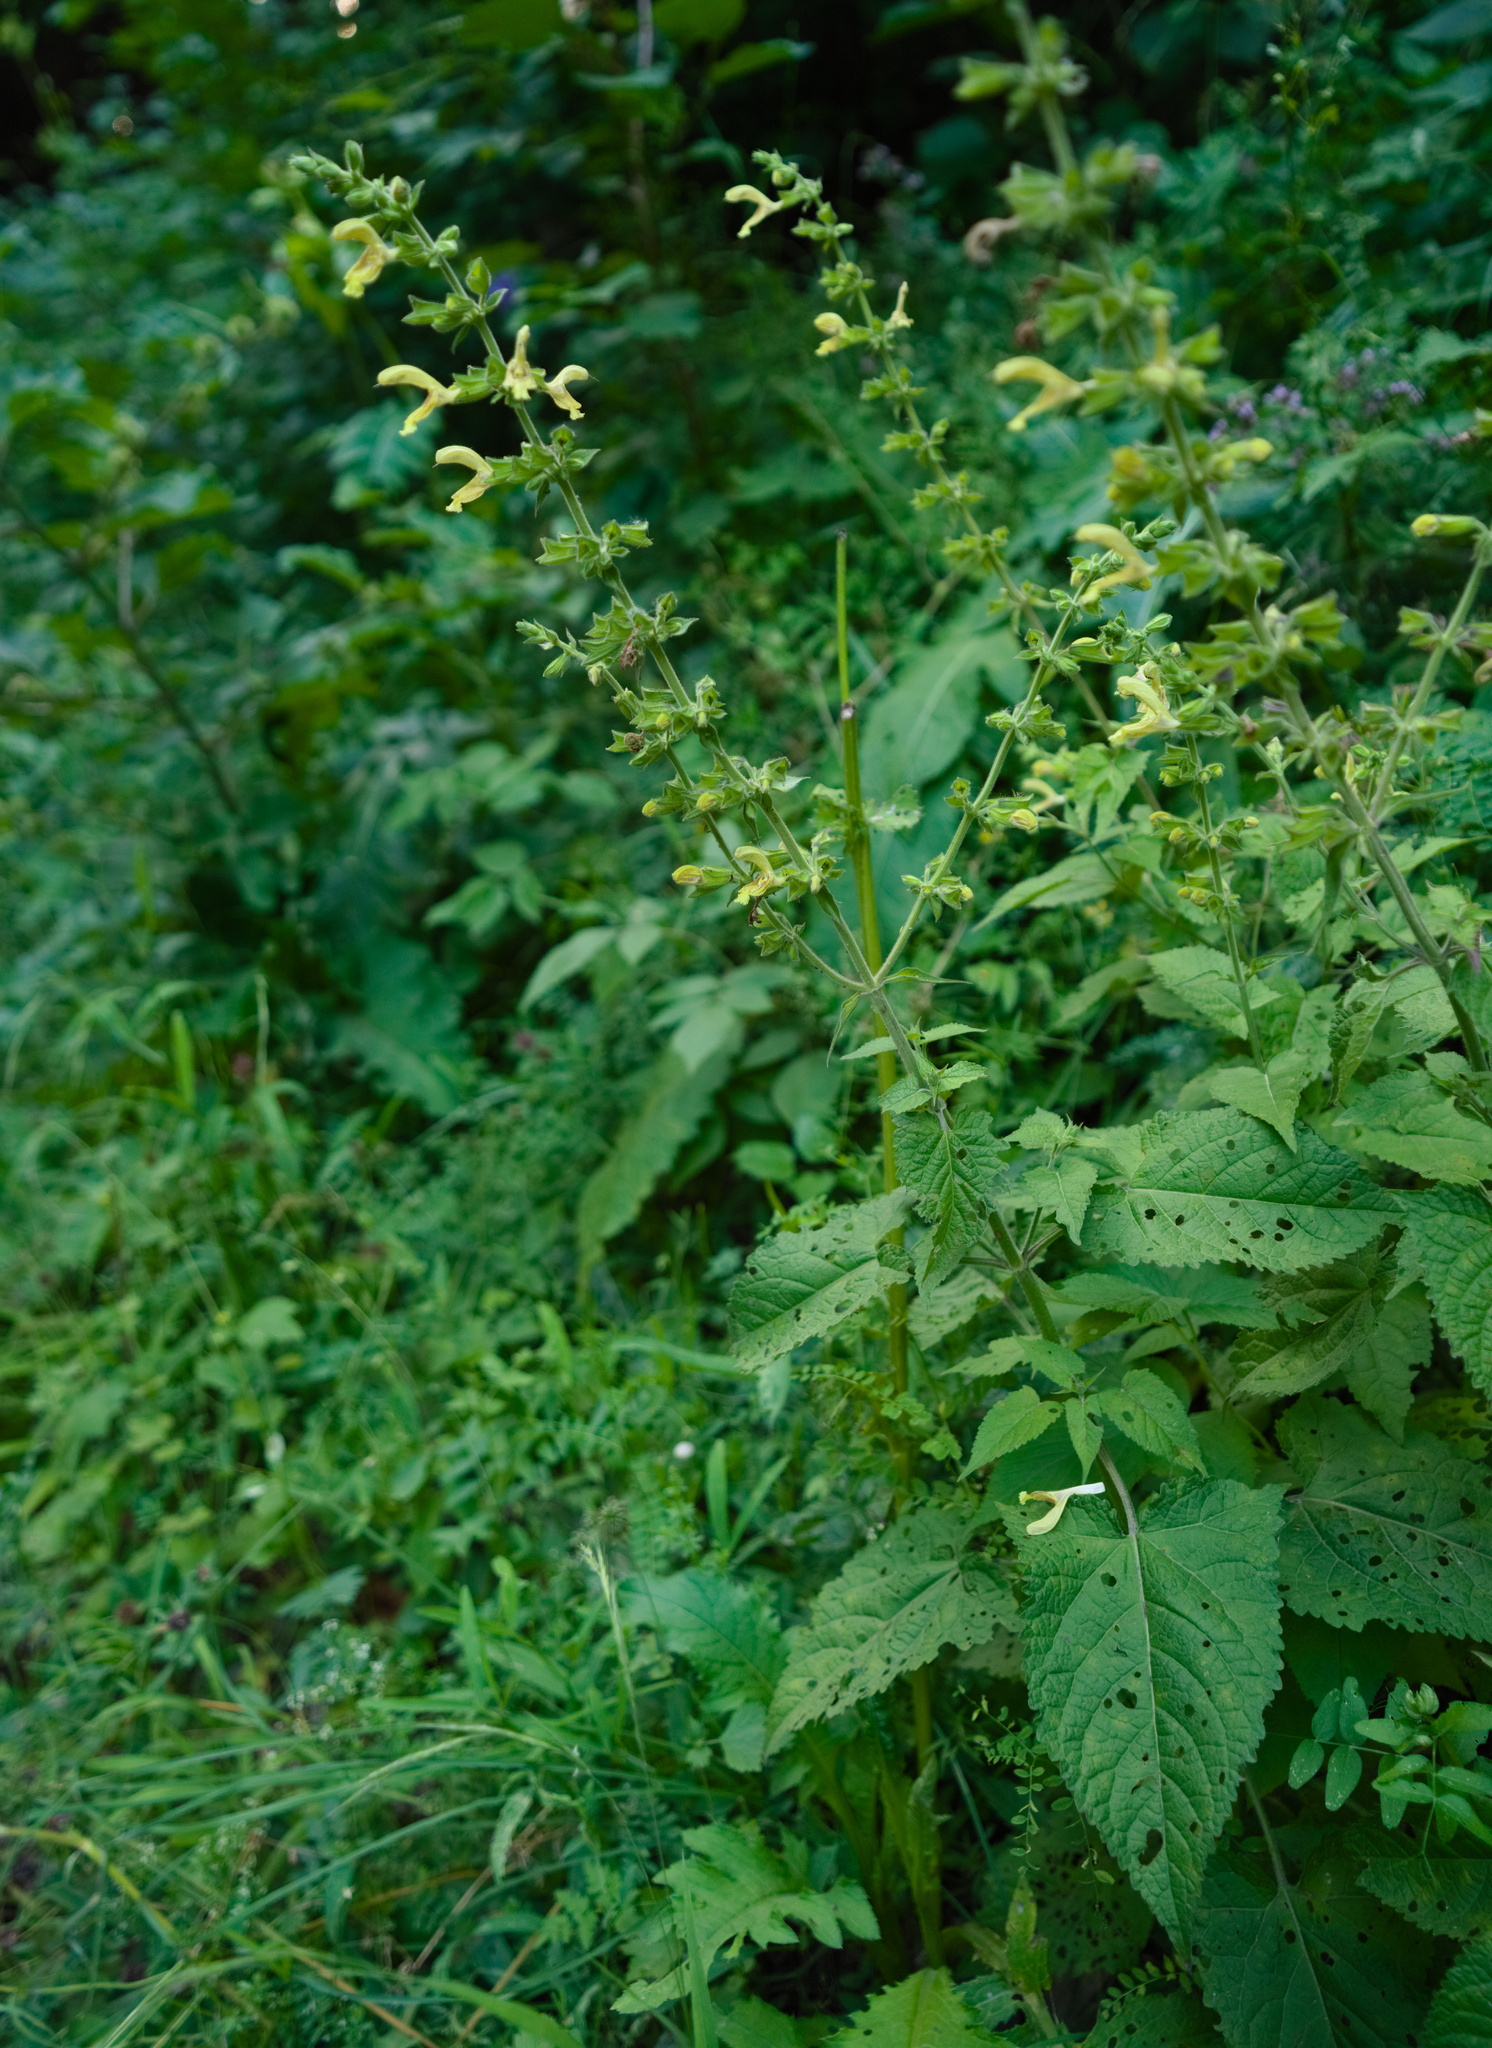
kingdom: Plantae
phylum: Tracheophyta
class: Magnoliopsida
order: Lamiales
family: Lamiaceae
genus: Salvia
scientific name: Salvia glutinosa
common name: Sticky clary
